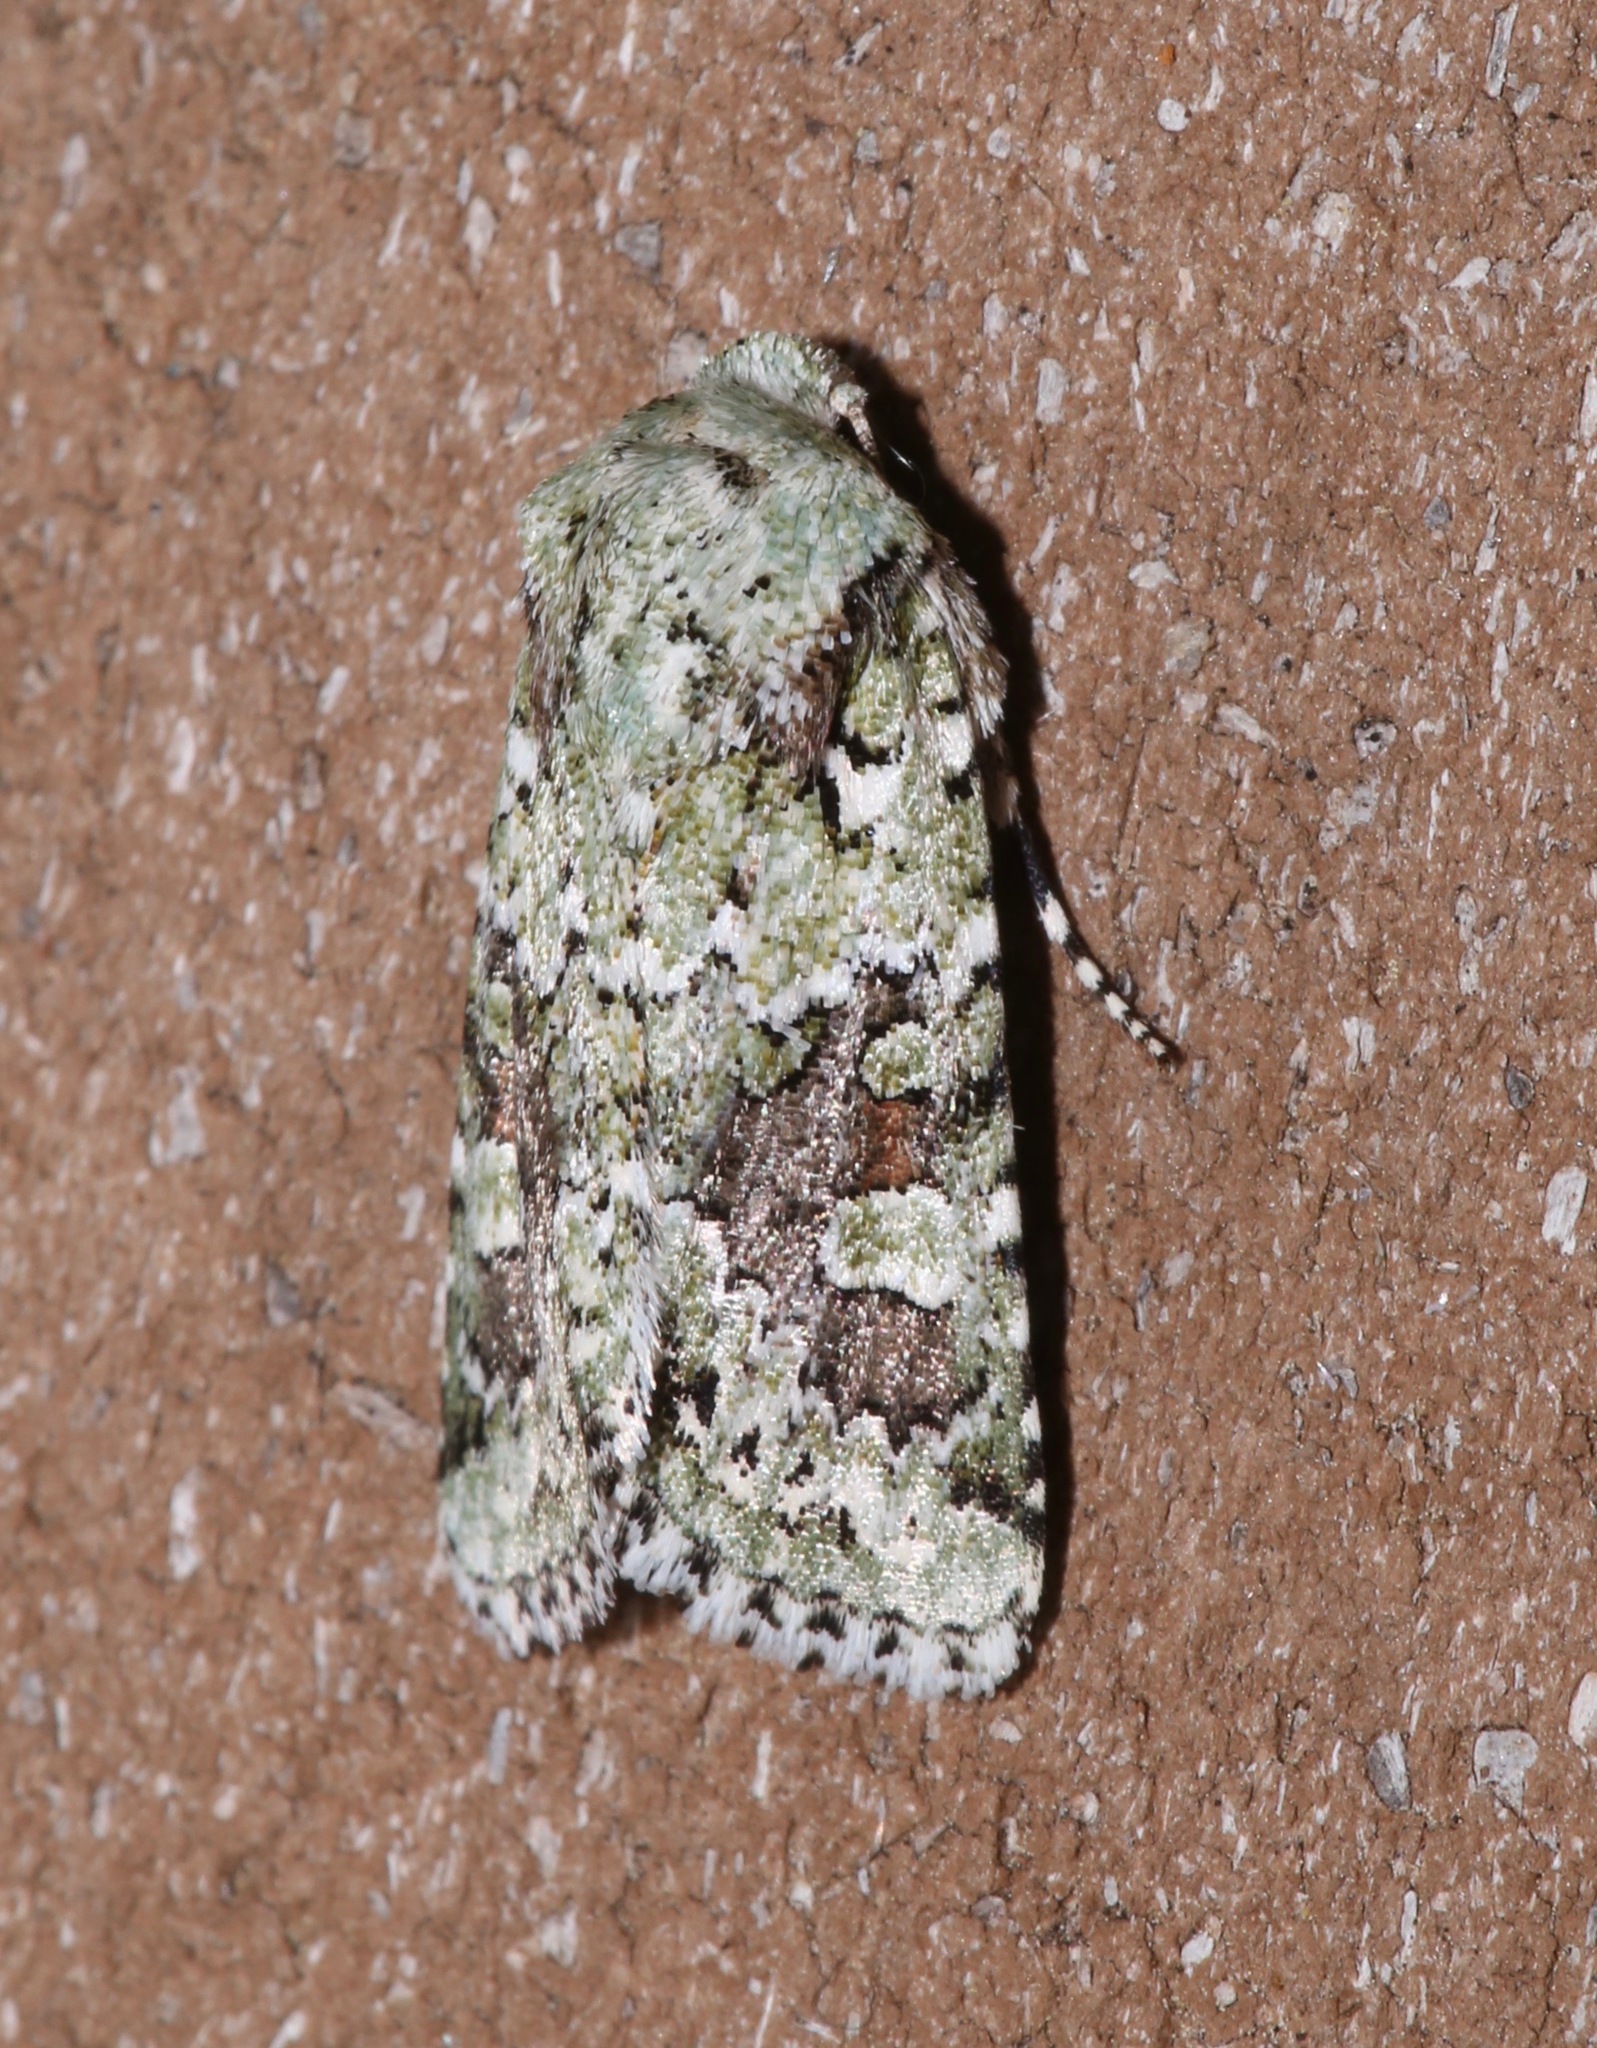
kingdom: Animalia
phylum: Arthropoda
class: Insecta
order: Lepidoptera
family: Noctuidae
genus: Lacinipolia
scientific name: Lacinipolia laudabilis
